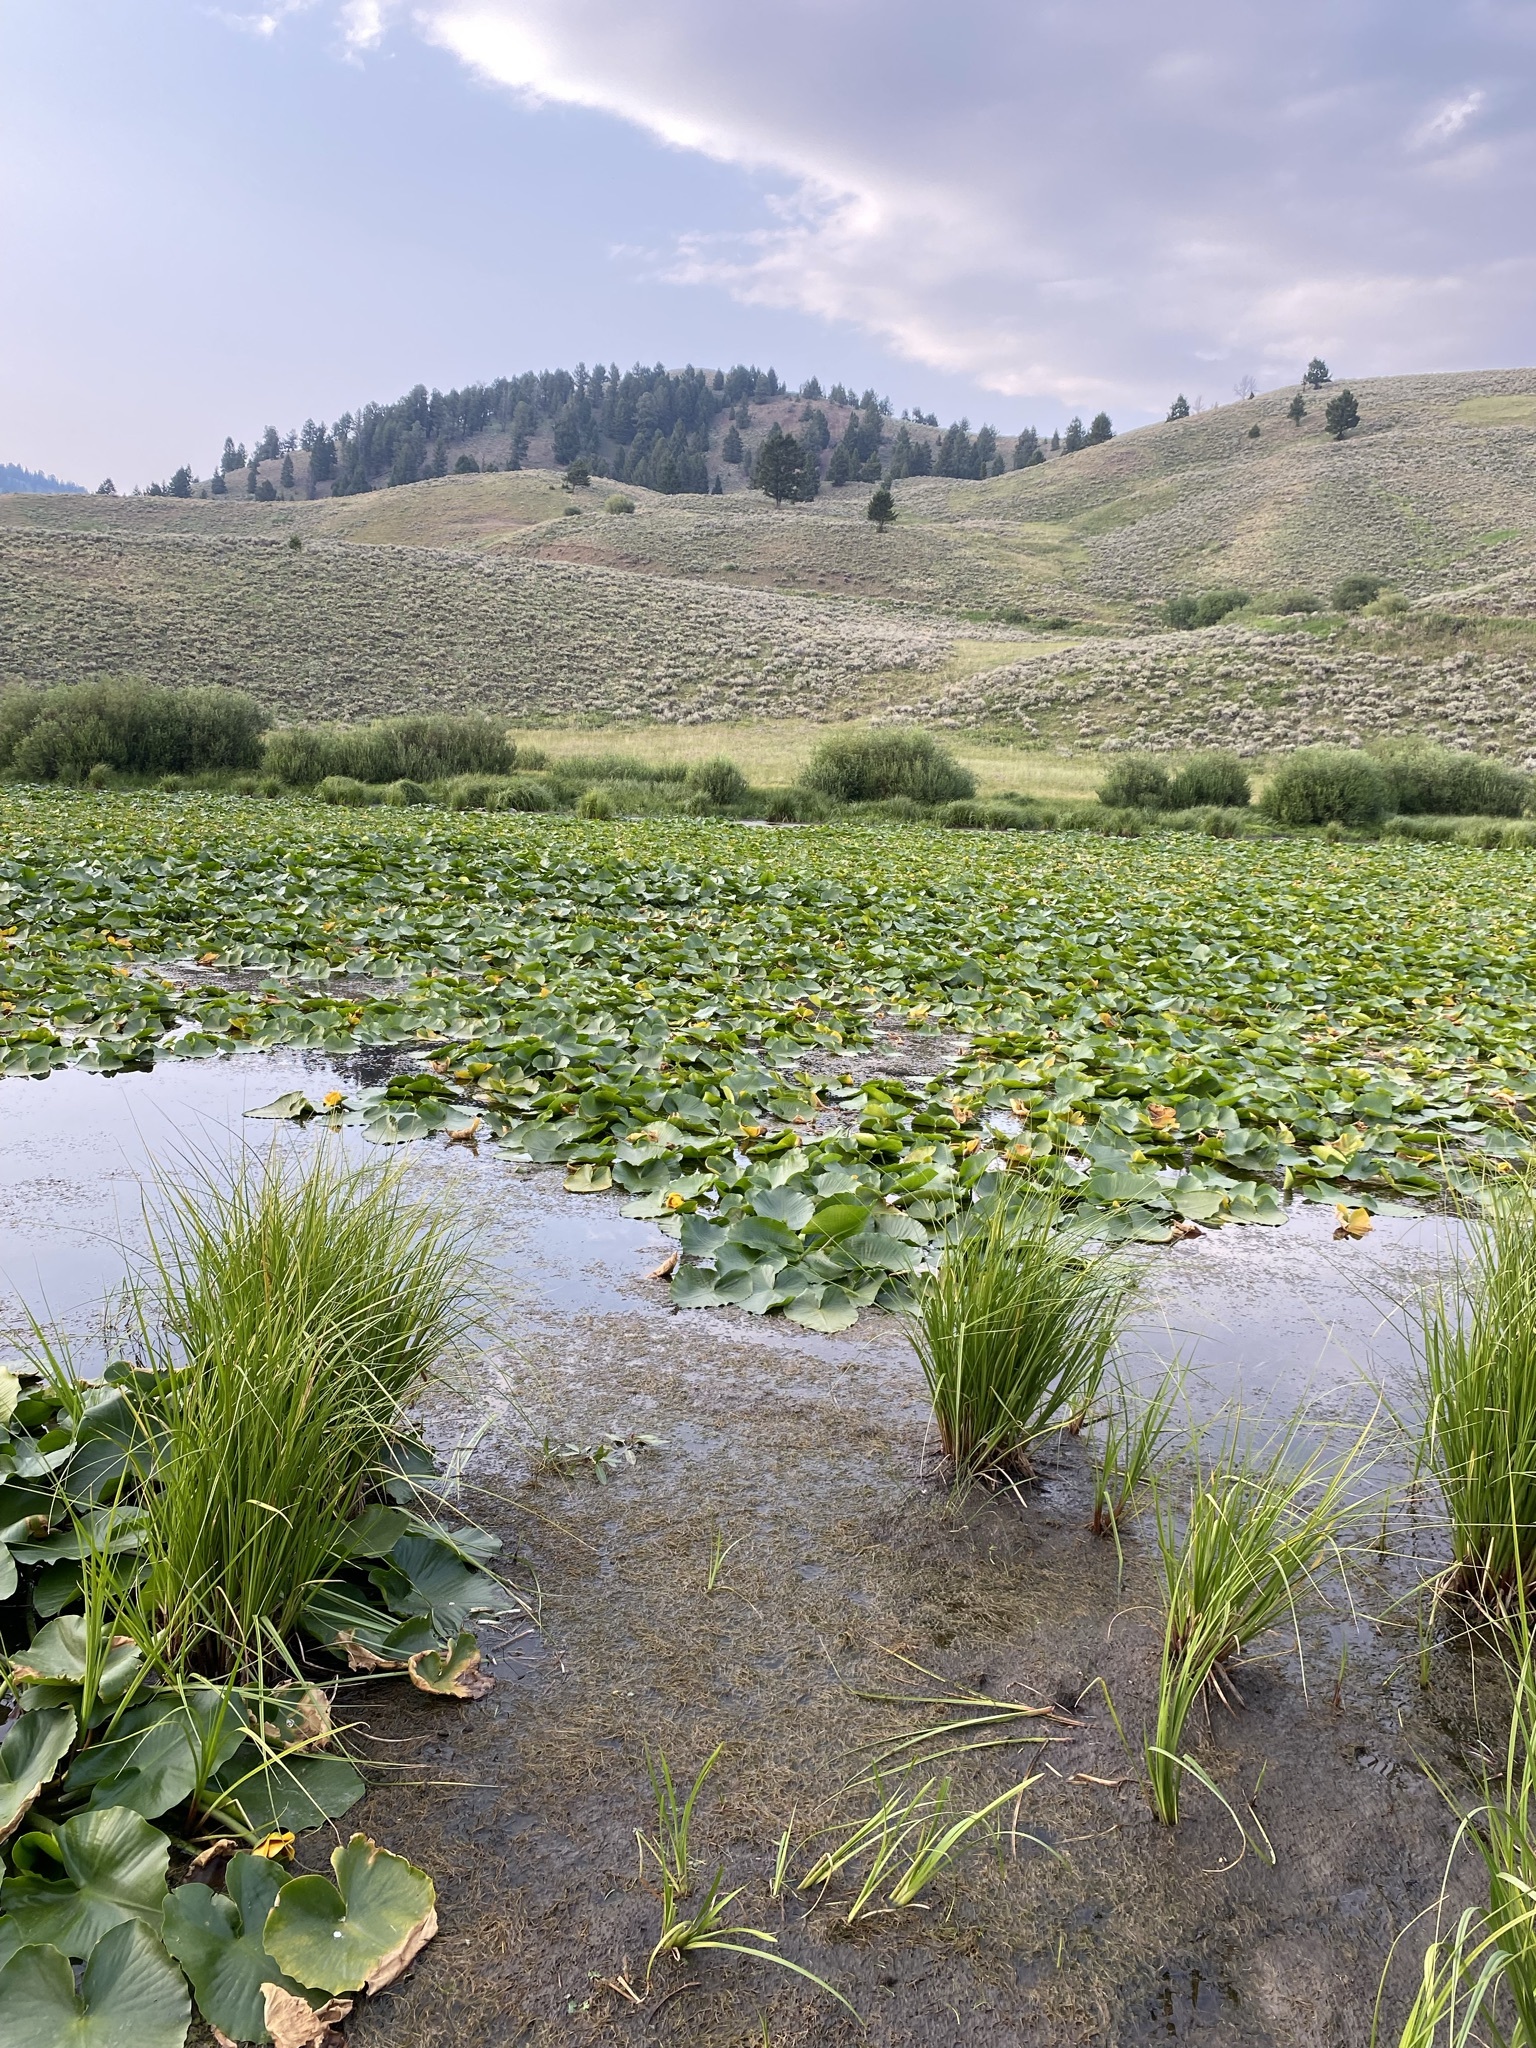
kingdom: Plantae
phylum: Tracheophyta
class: Magnoliopsida
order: Nymphaeales
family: Nymphaeaceae
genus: Nuphar
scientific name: Nuphar polysepala
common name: Rocky mountain cow-lily
